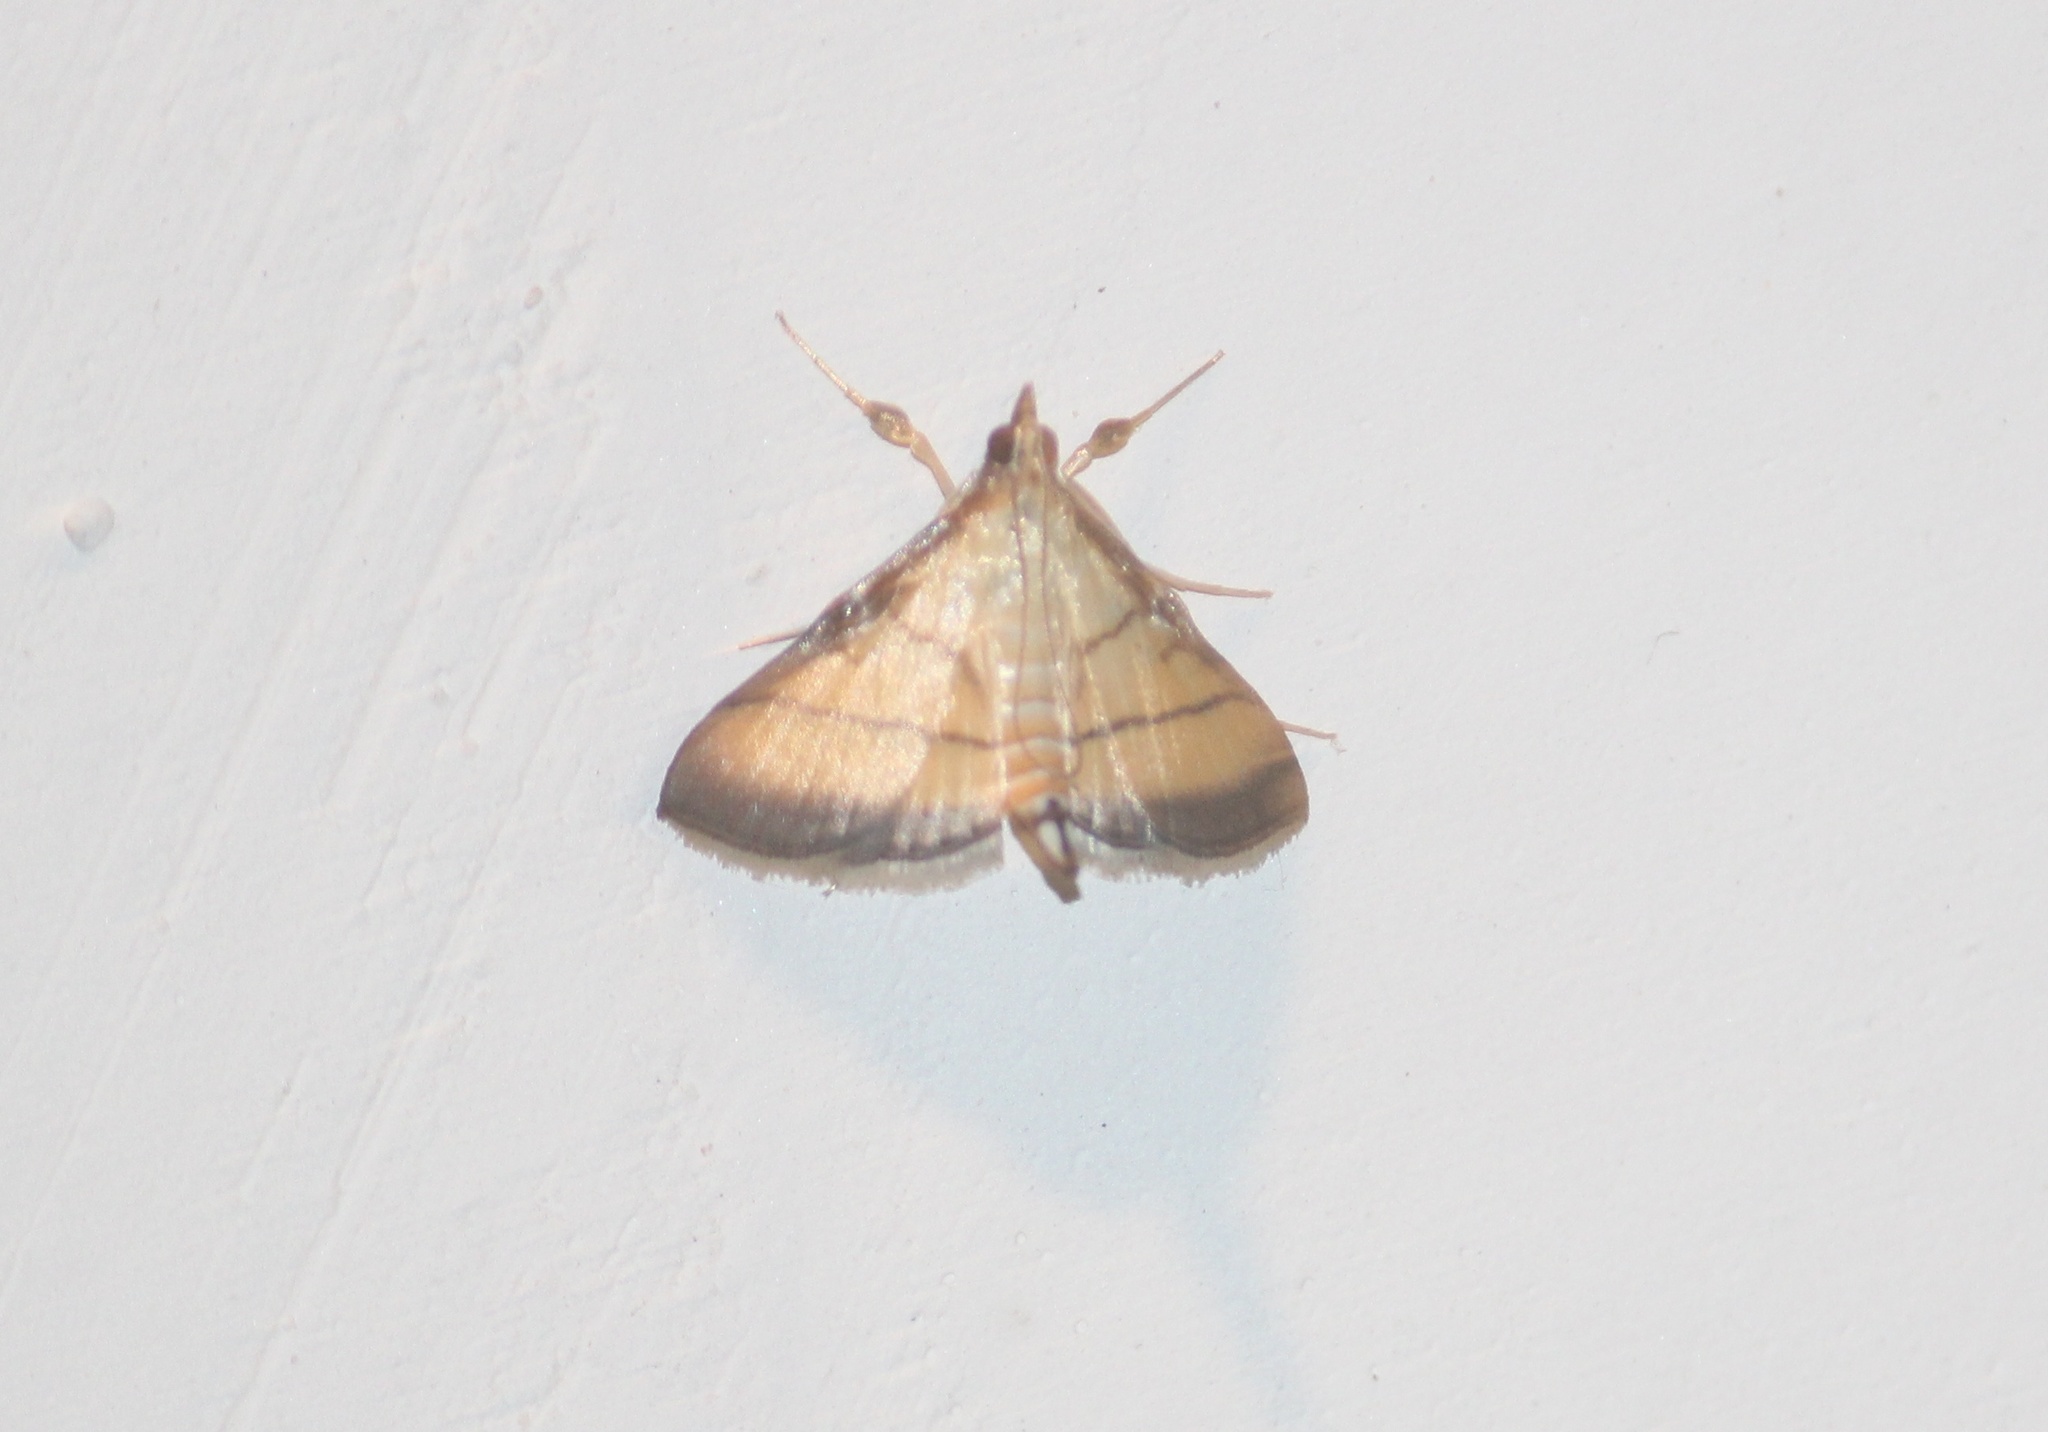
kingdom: Animalia
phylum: Arthropoda
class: Insecta
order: Lepidoptera
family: Crambidae
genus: Cnaphalocrocis
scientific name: Cnaphalocrocis medinalis
